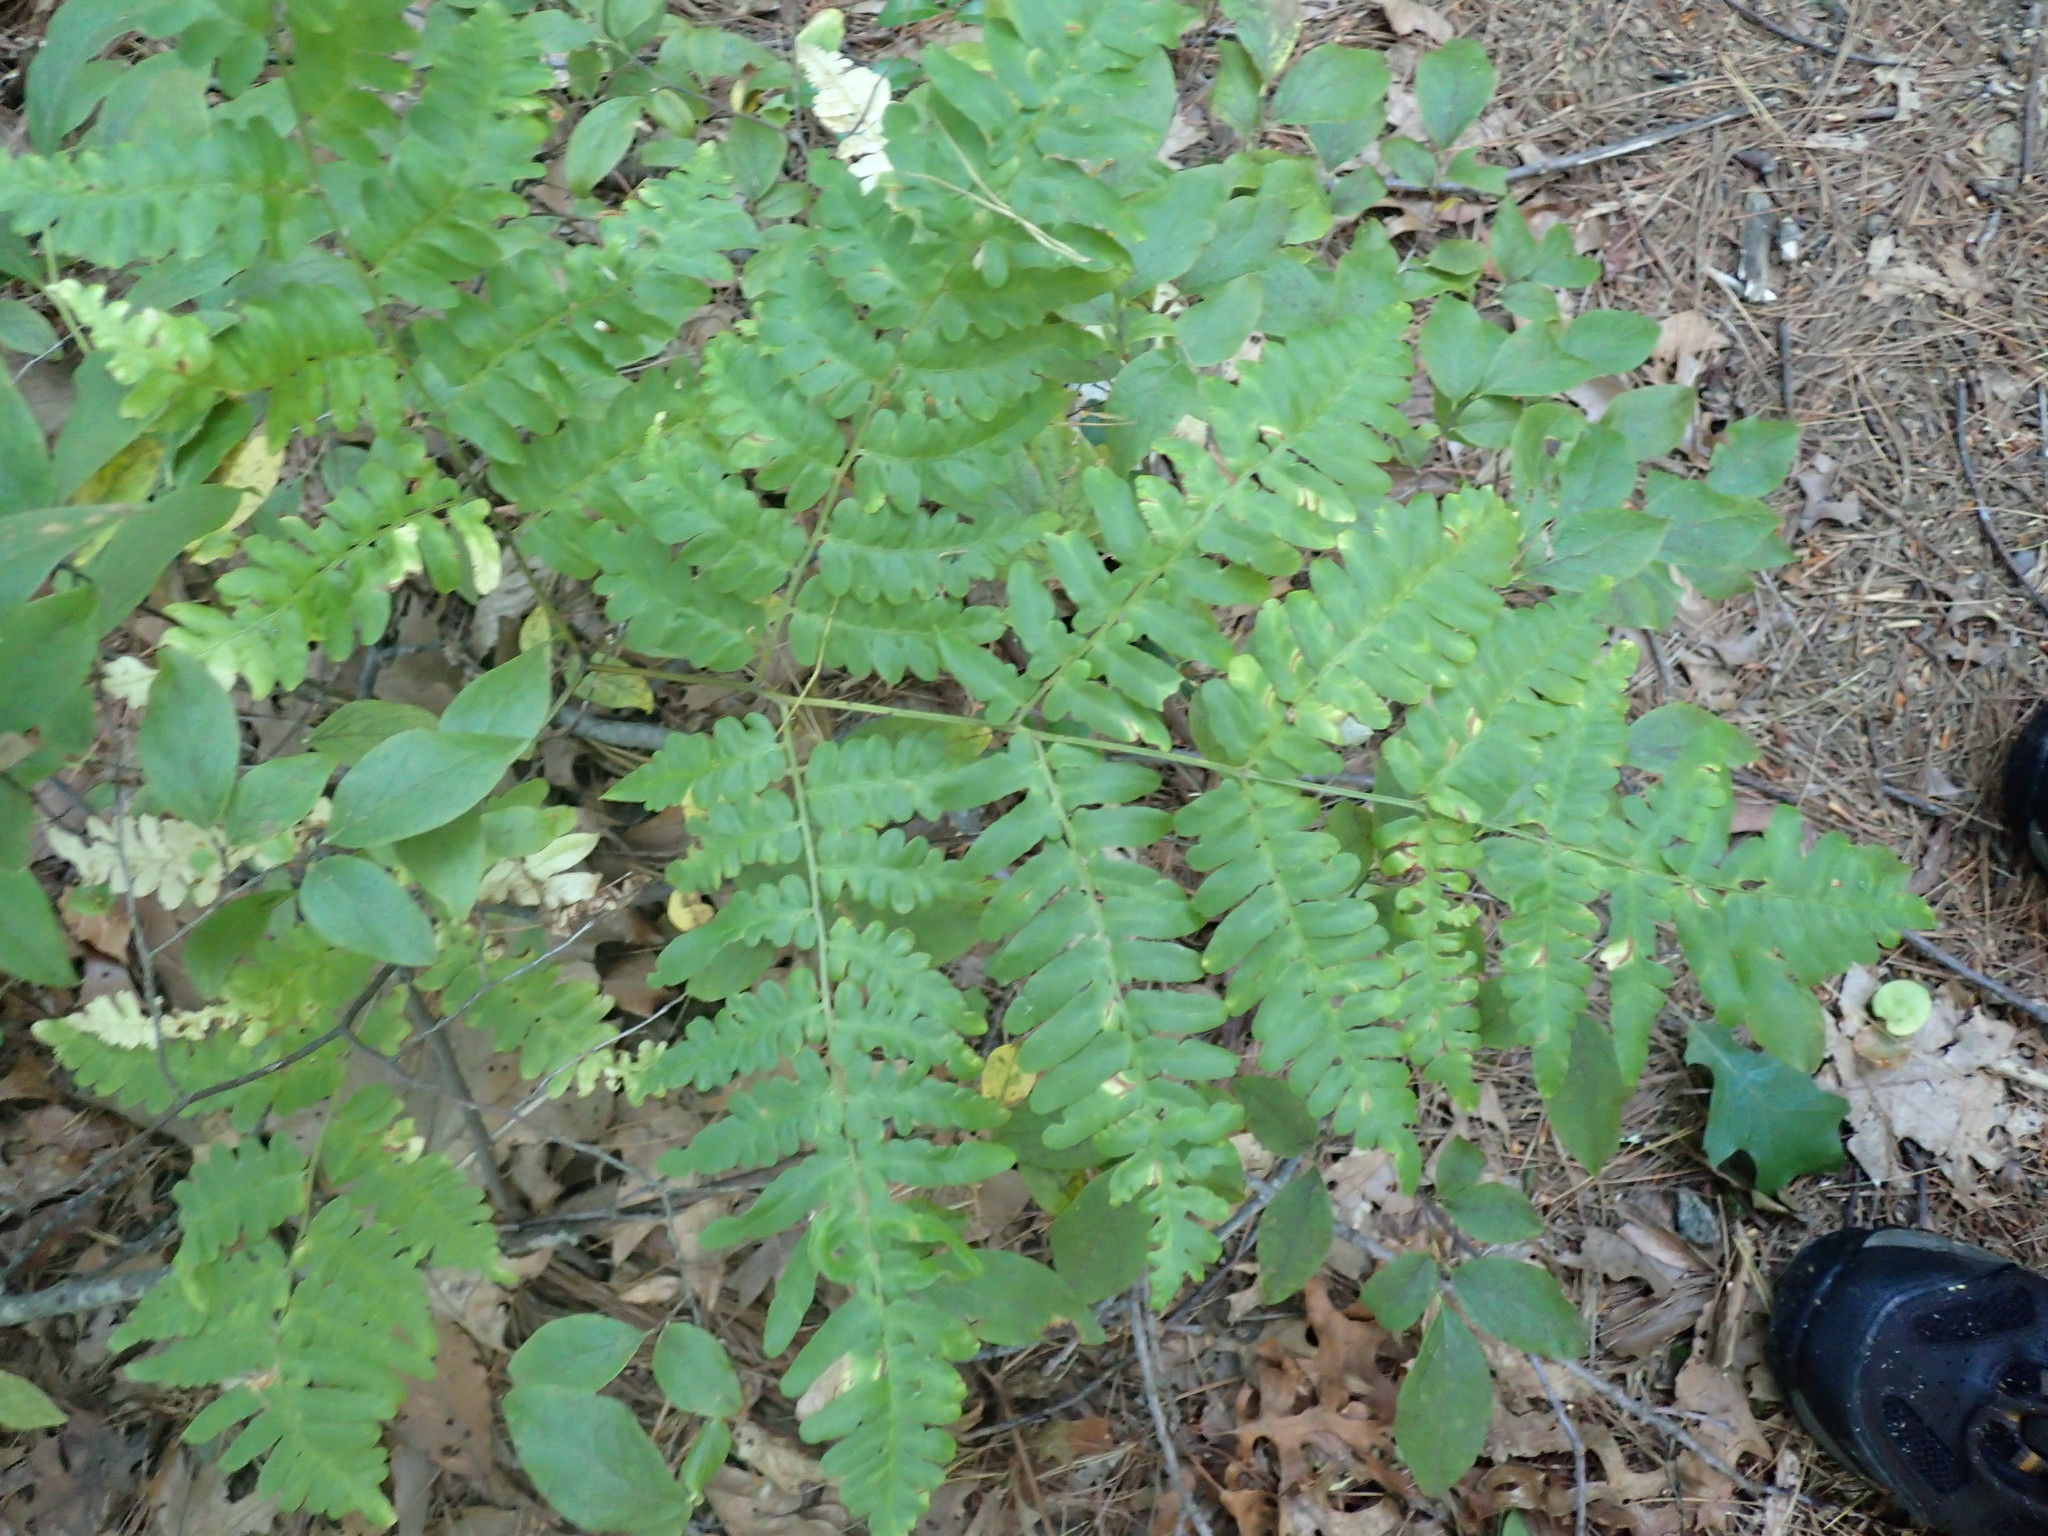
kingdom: Plantae
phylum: Tracheophyta
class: Polypodiopsida
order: Polypodiales
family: Dennstaedtiaceae
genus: Pteridium
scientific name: Pteridium aquilinum
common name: Bracken
